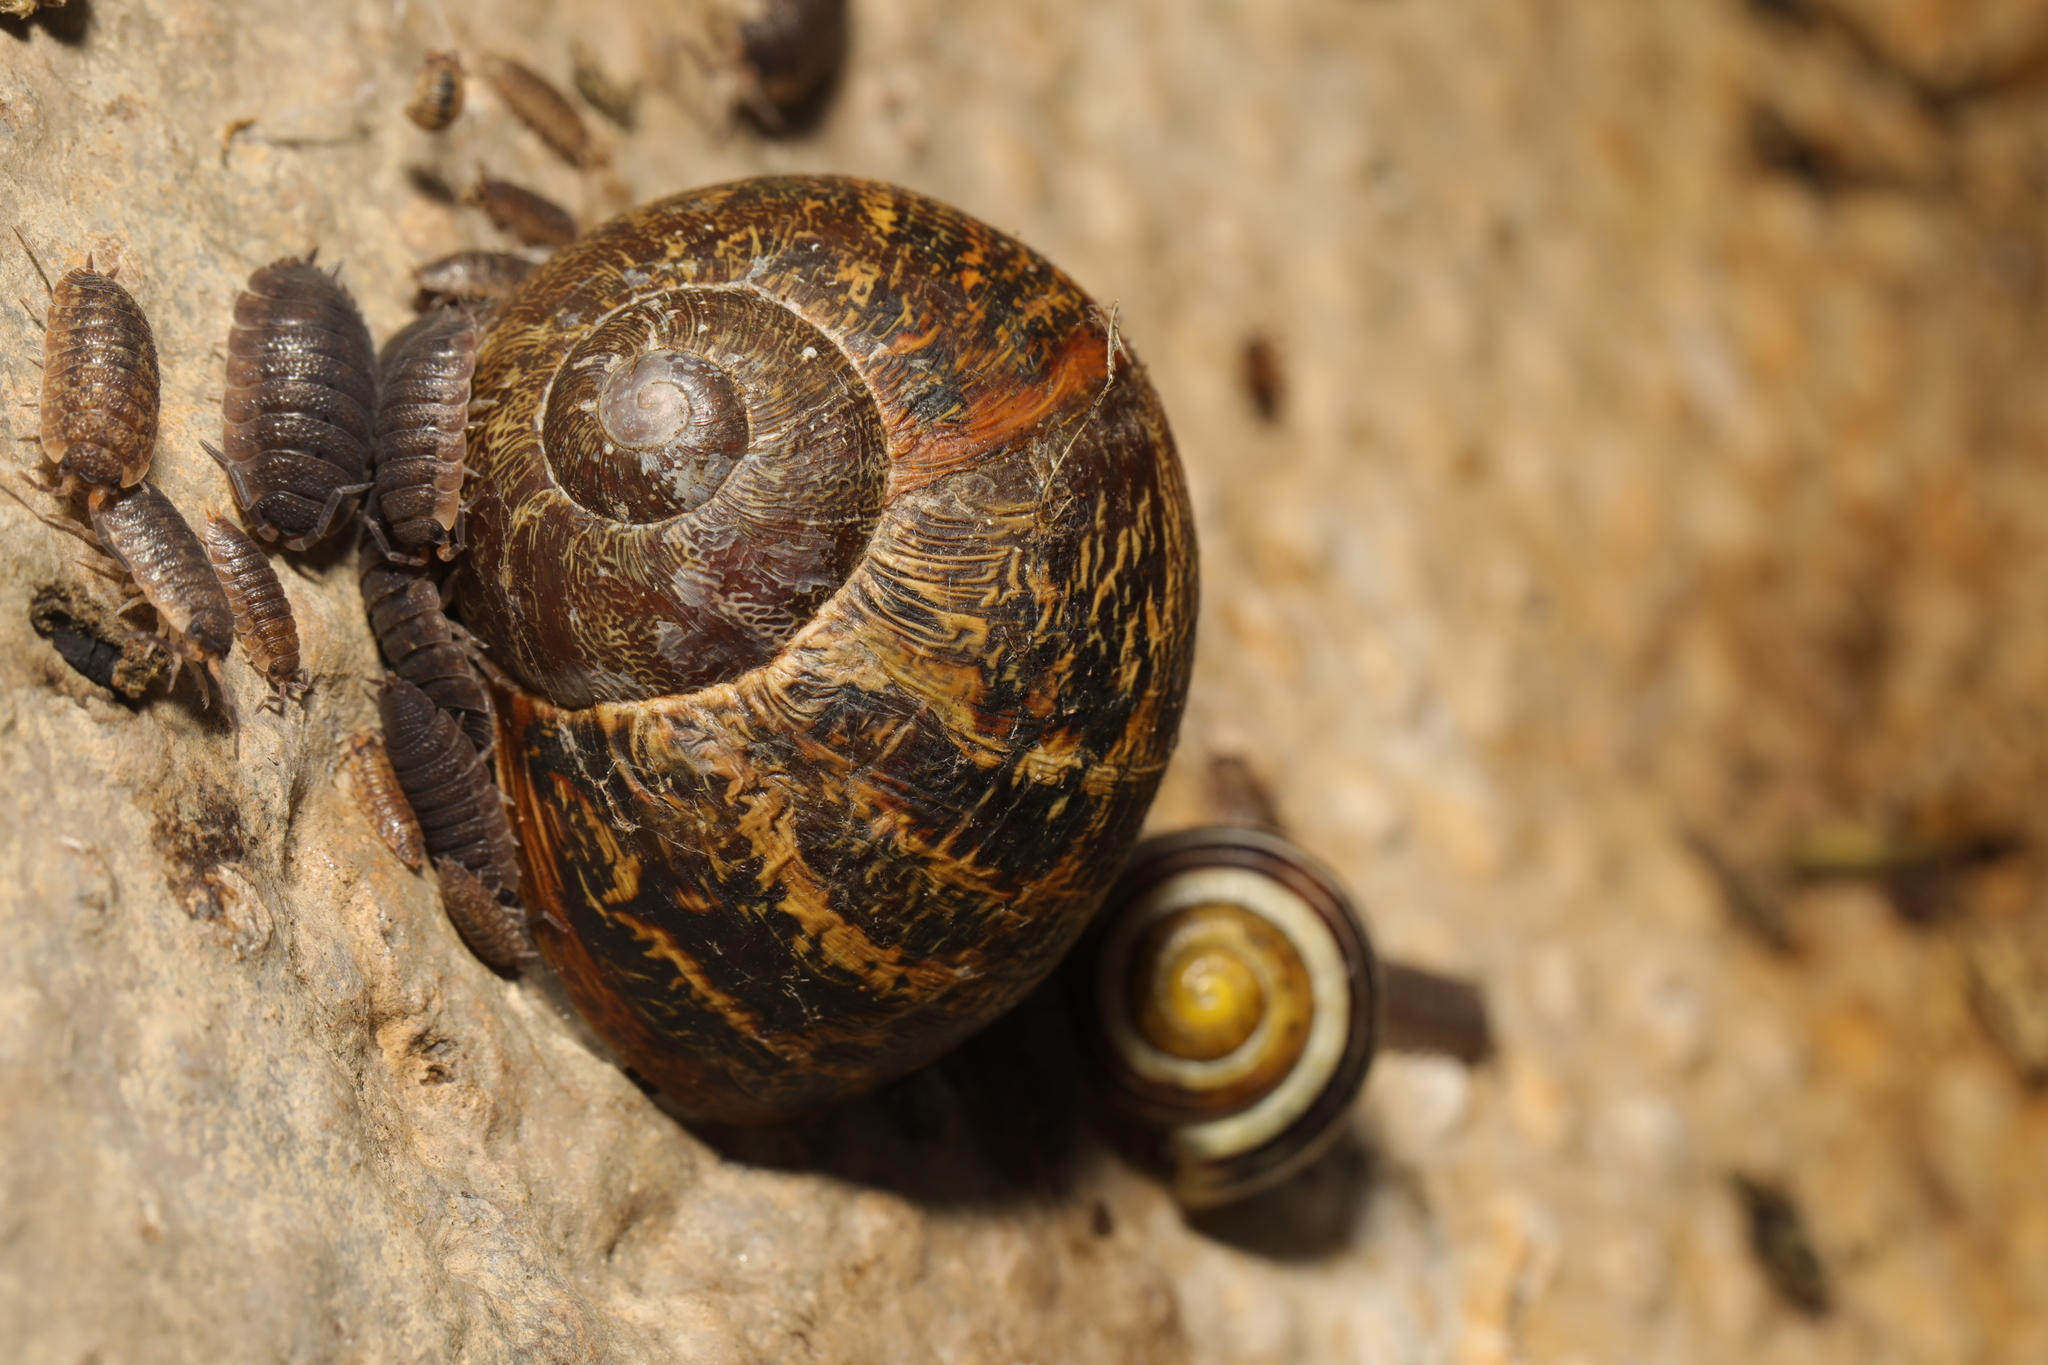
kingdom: Animalia
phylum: Mollusca
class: Gastropoda
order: Stylommatophora
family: Helicidae
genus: Cornu
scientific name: Cornu aspersum
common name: Brown garden snail
